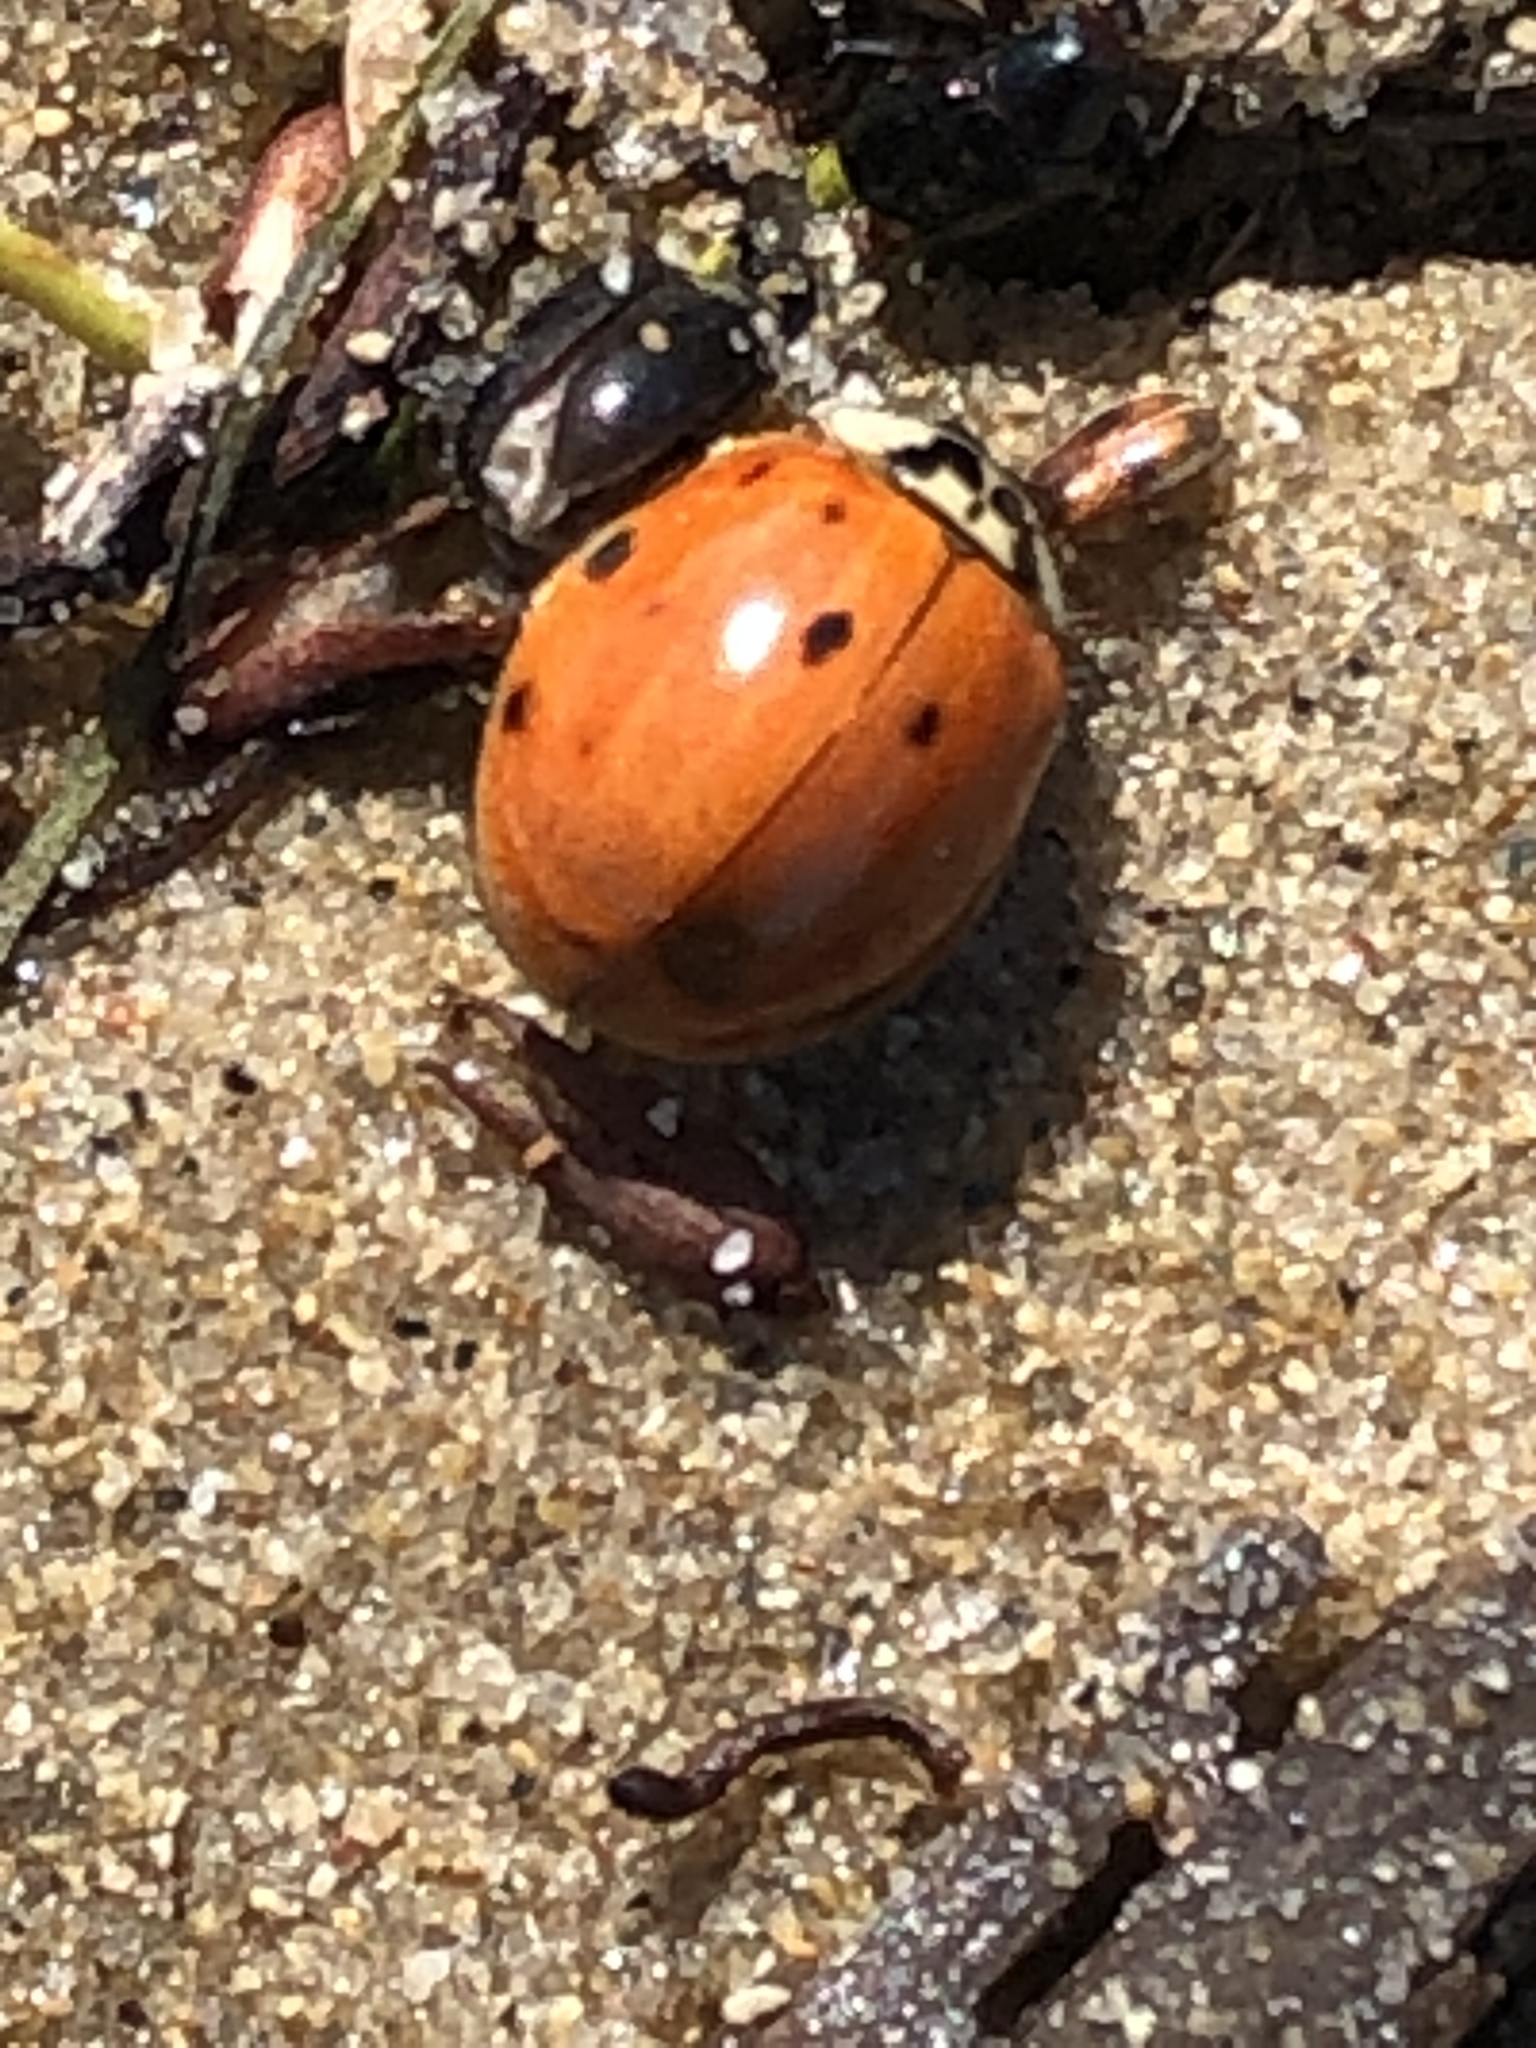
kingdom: Animalia
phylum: Arthropoda
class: Insecta
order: Coleoptera
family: Coccinellidae
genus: Harmonia
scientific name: Harmonia axyridis
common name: Harlequin ladybird
